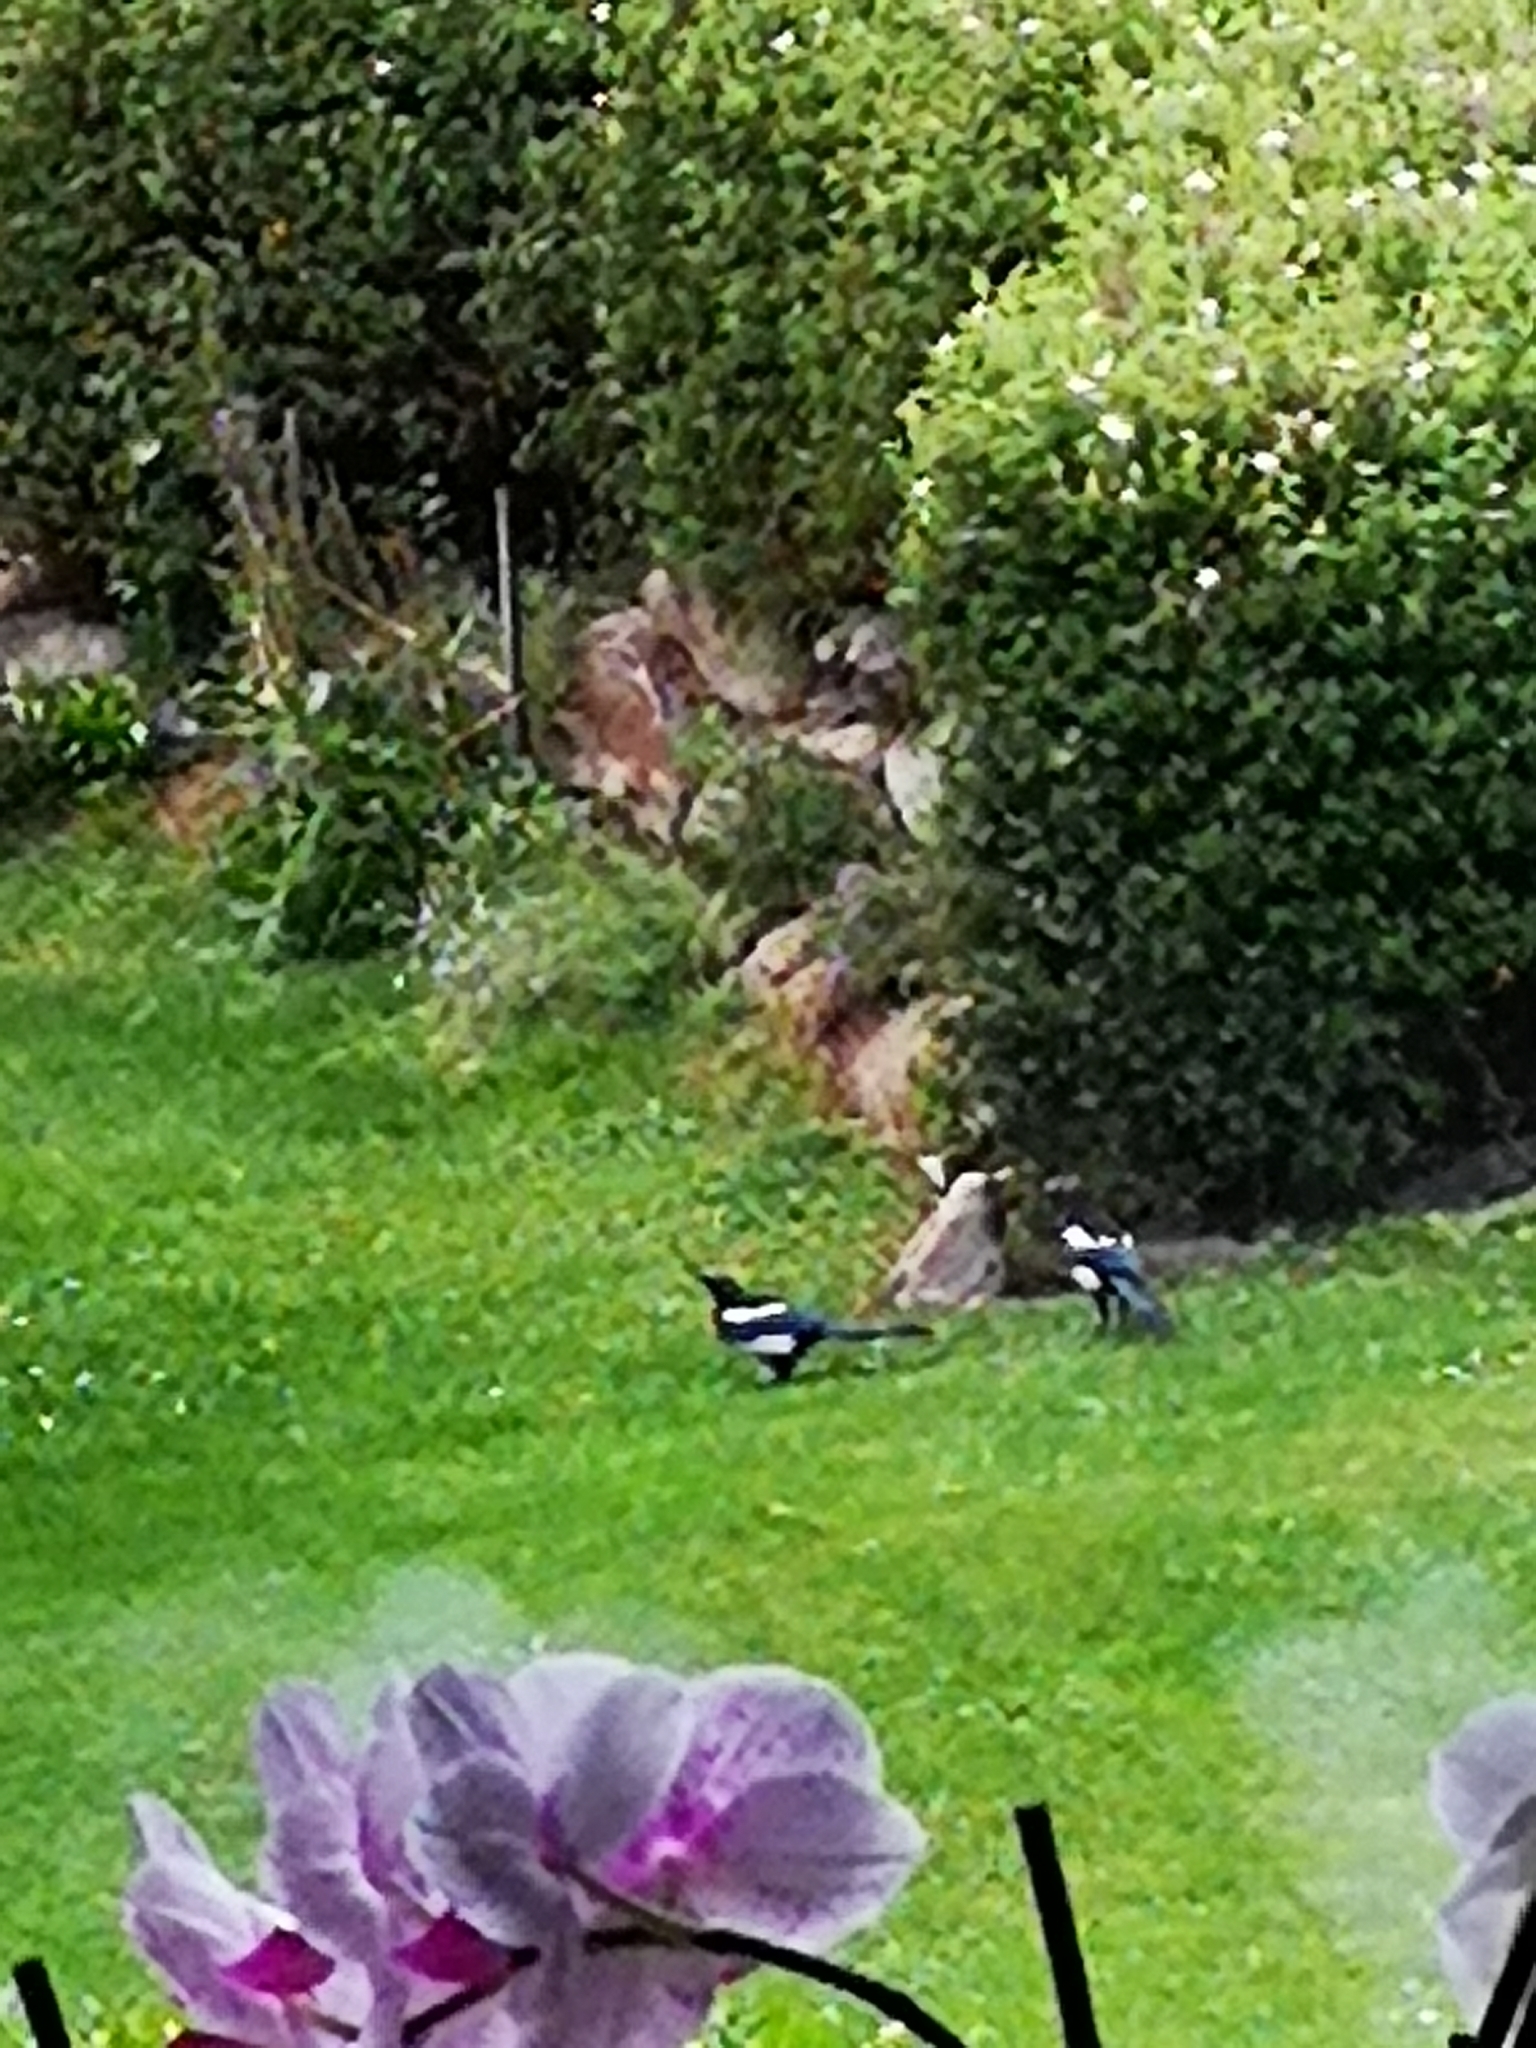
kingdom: Animalia
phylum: Chordata
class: Aves
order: Passeriformes
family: Corvidae
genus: Pica
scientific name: Pica pica
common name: Eurasian magpie
